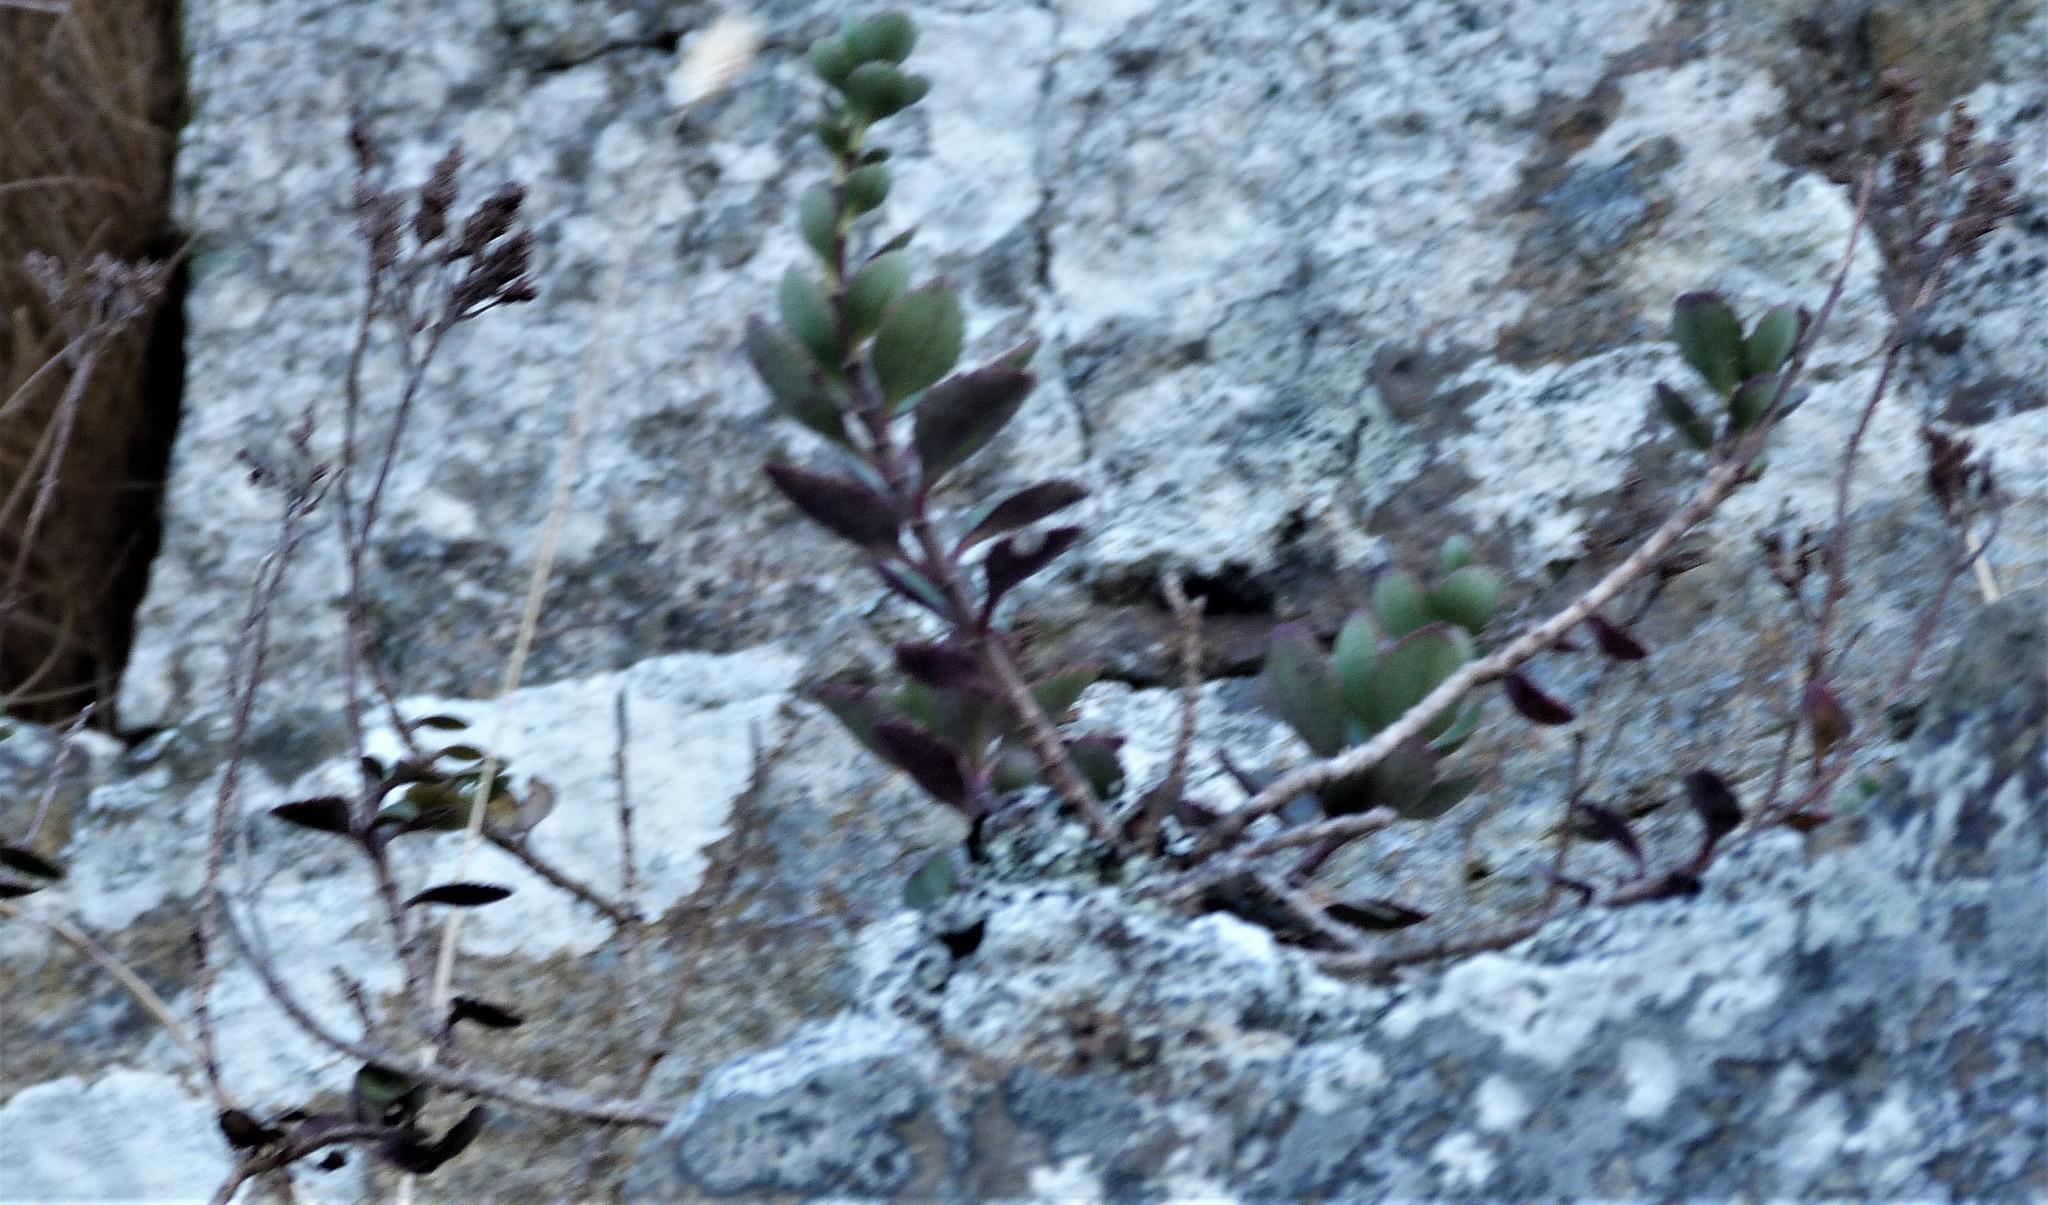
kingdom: Plantae
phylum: Tracheophyta
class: Magnoliopsida
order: Lamiales
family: Plantaginaceae
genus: Veronica
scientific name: Veronica lavaudiana
